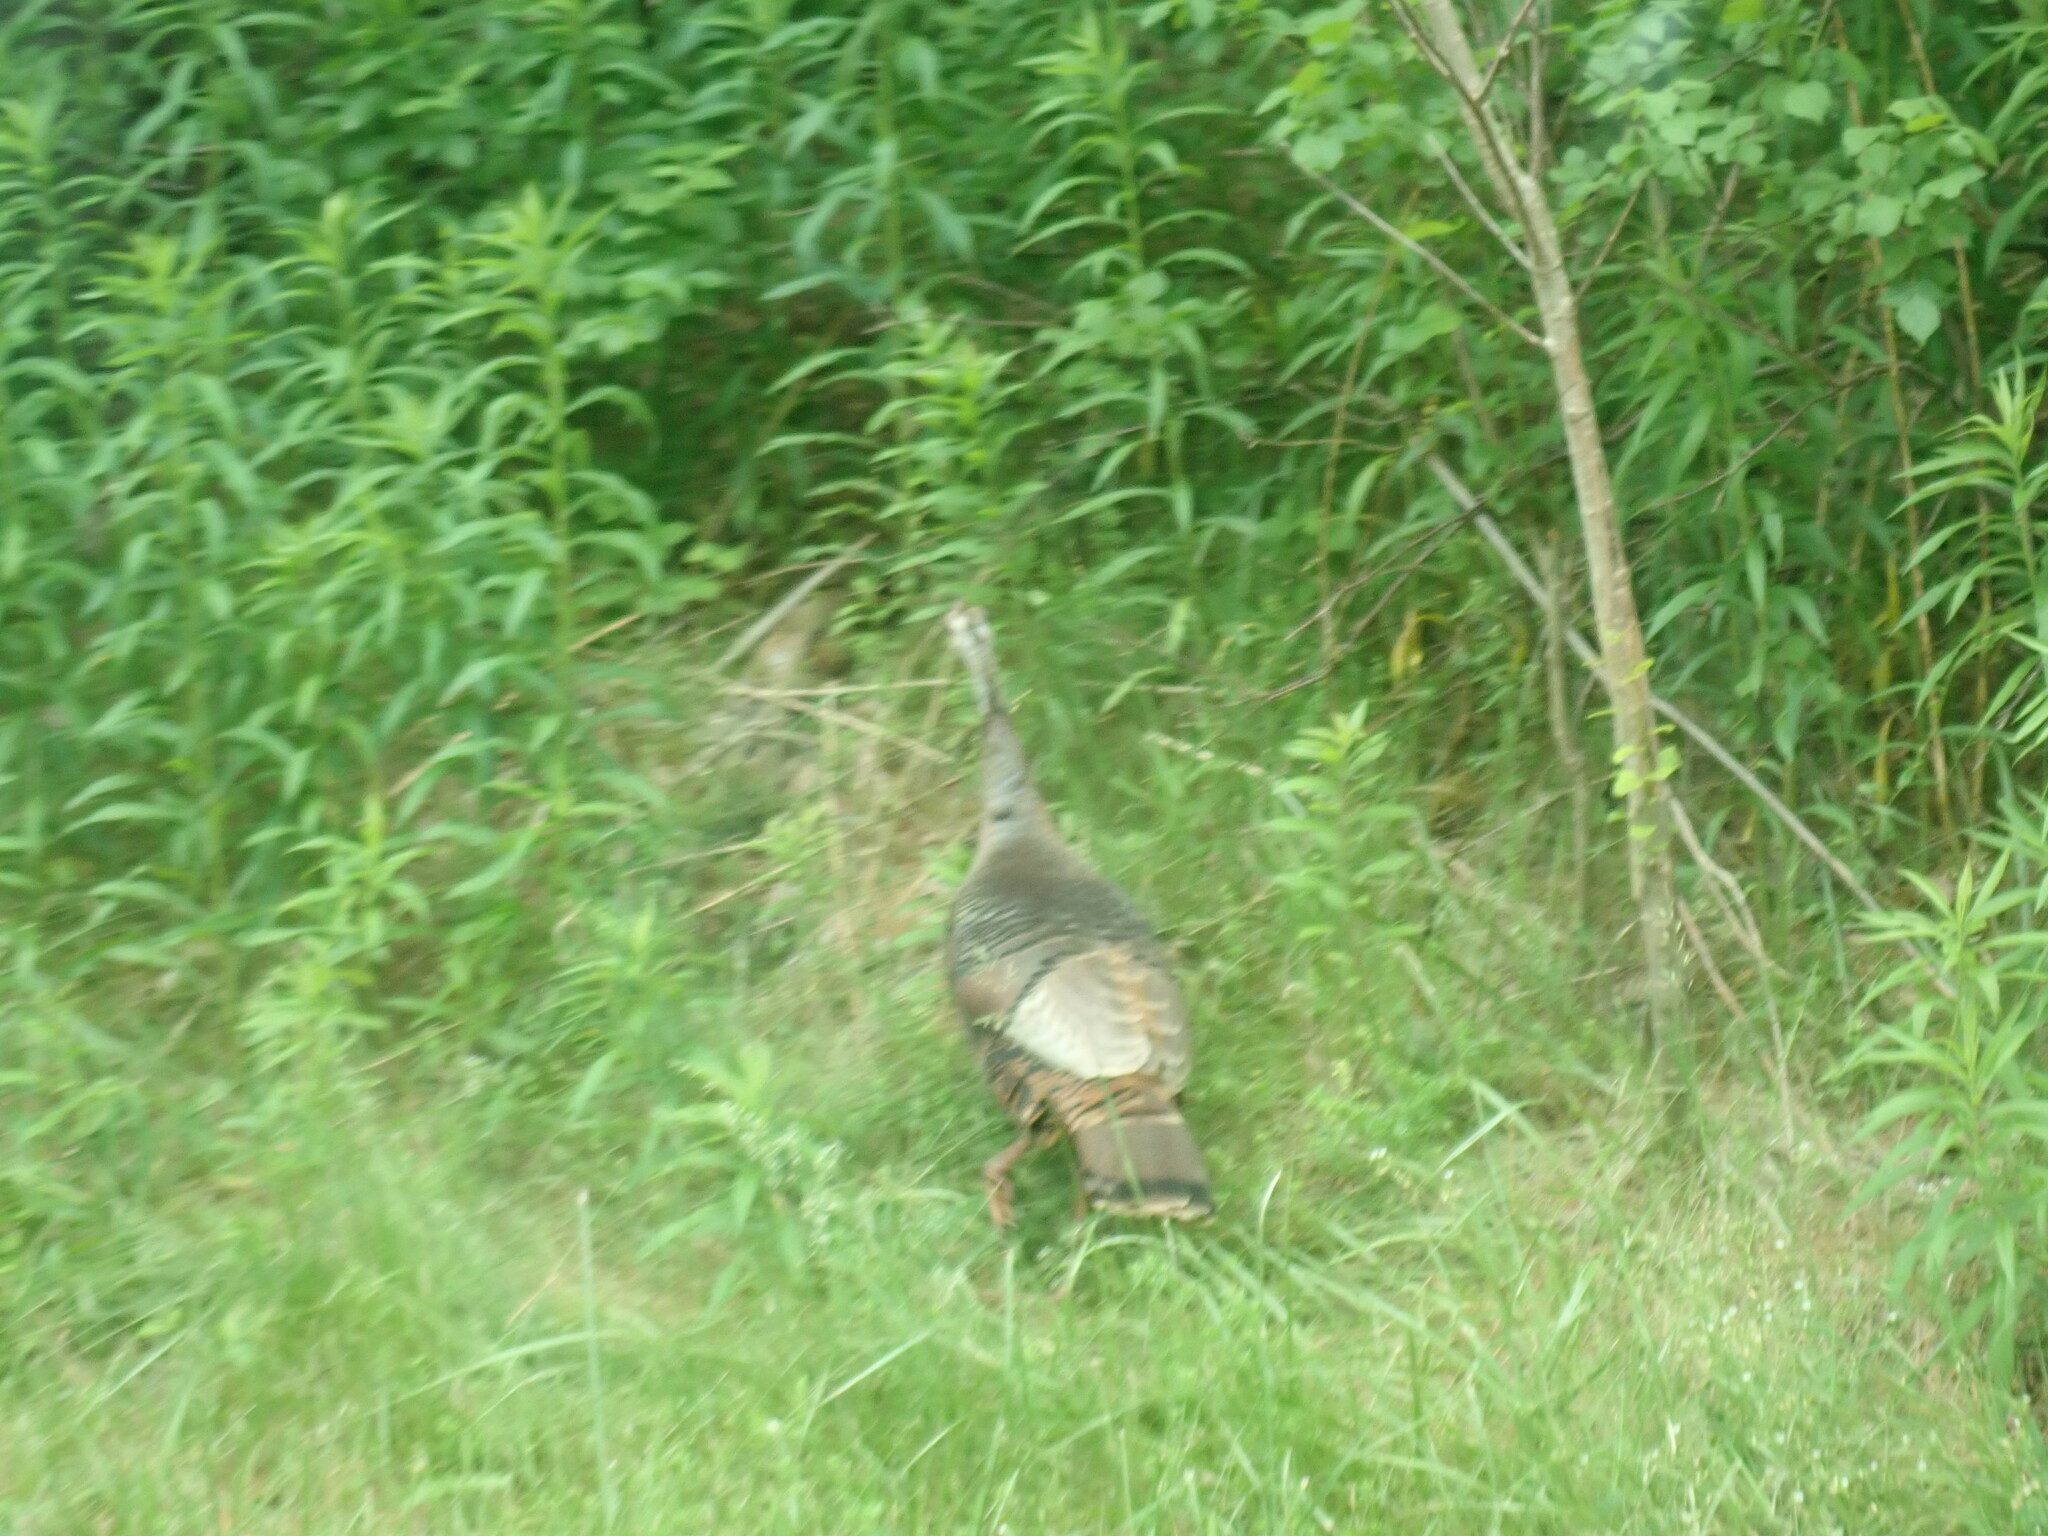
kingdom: Animalia
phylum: Chordata
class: Aves
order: Galliformes
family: Phasianidae
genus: Meleagris
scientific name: Meleagris gallopavo
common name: Wild turkey
